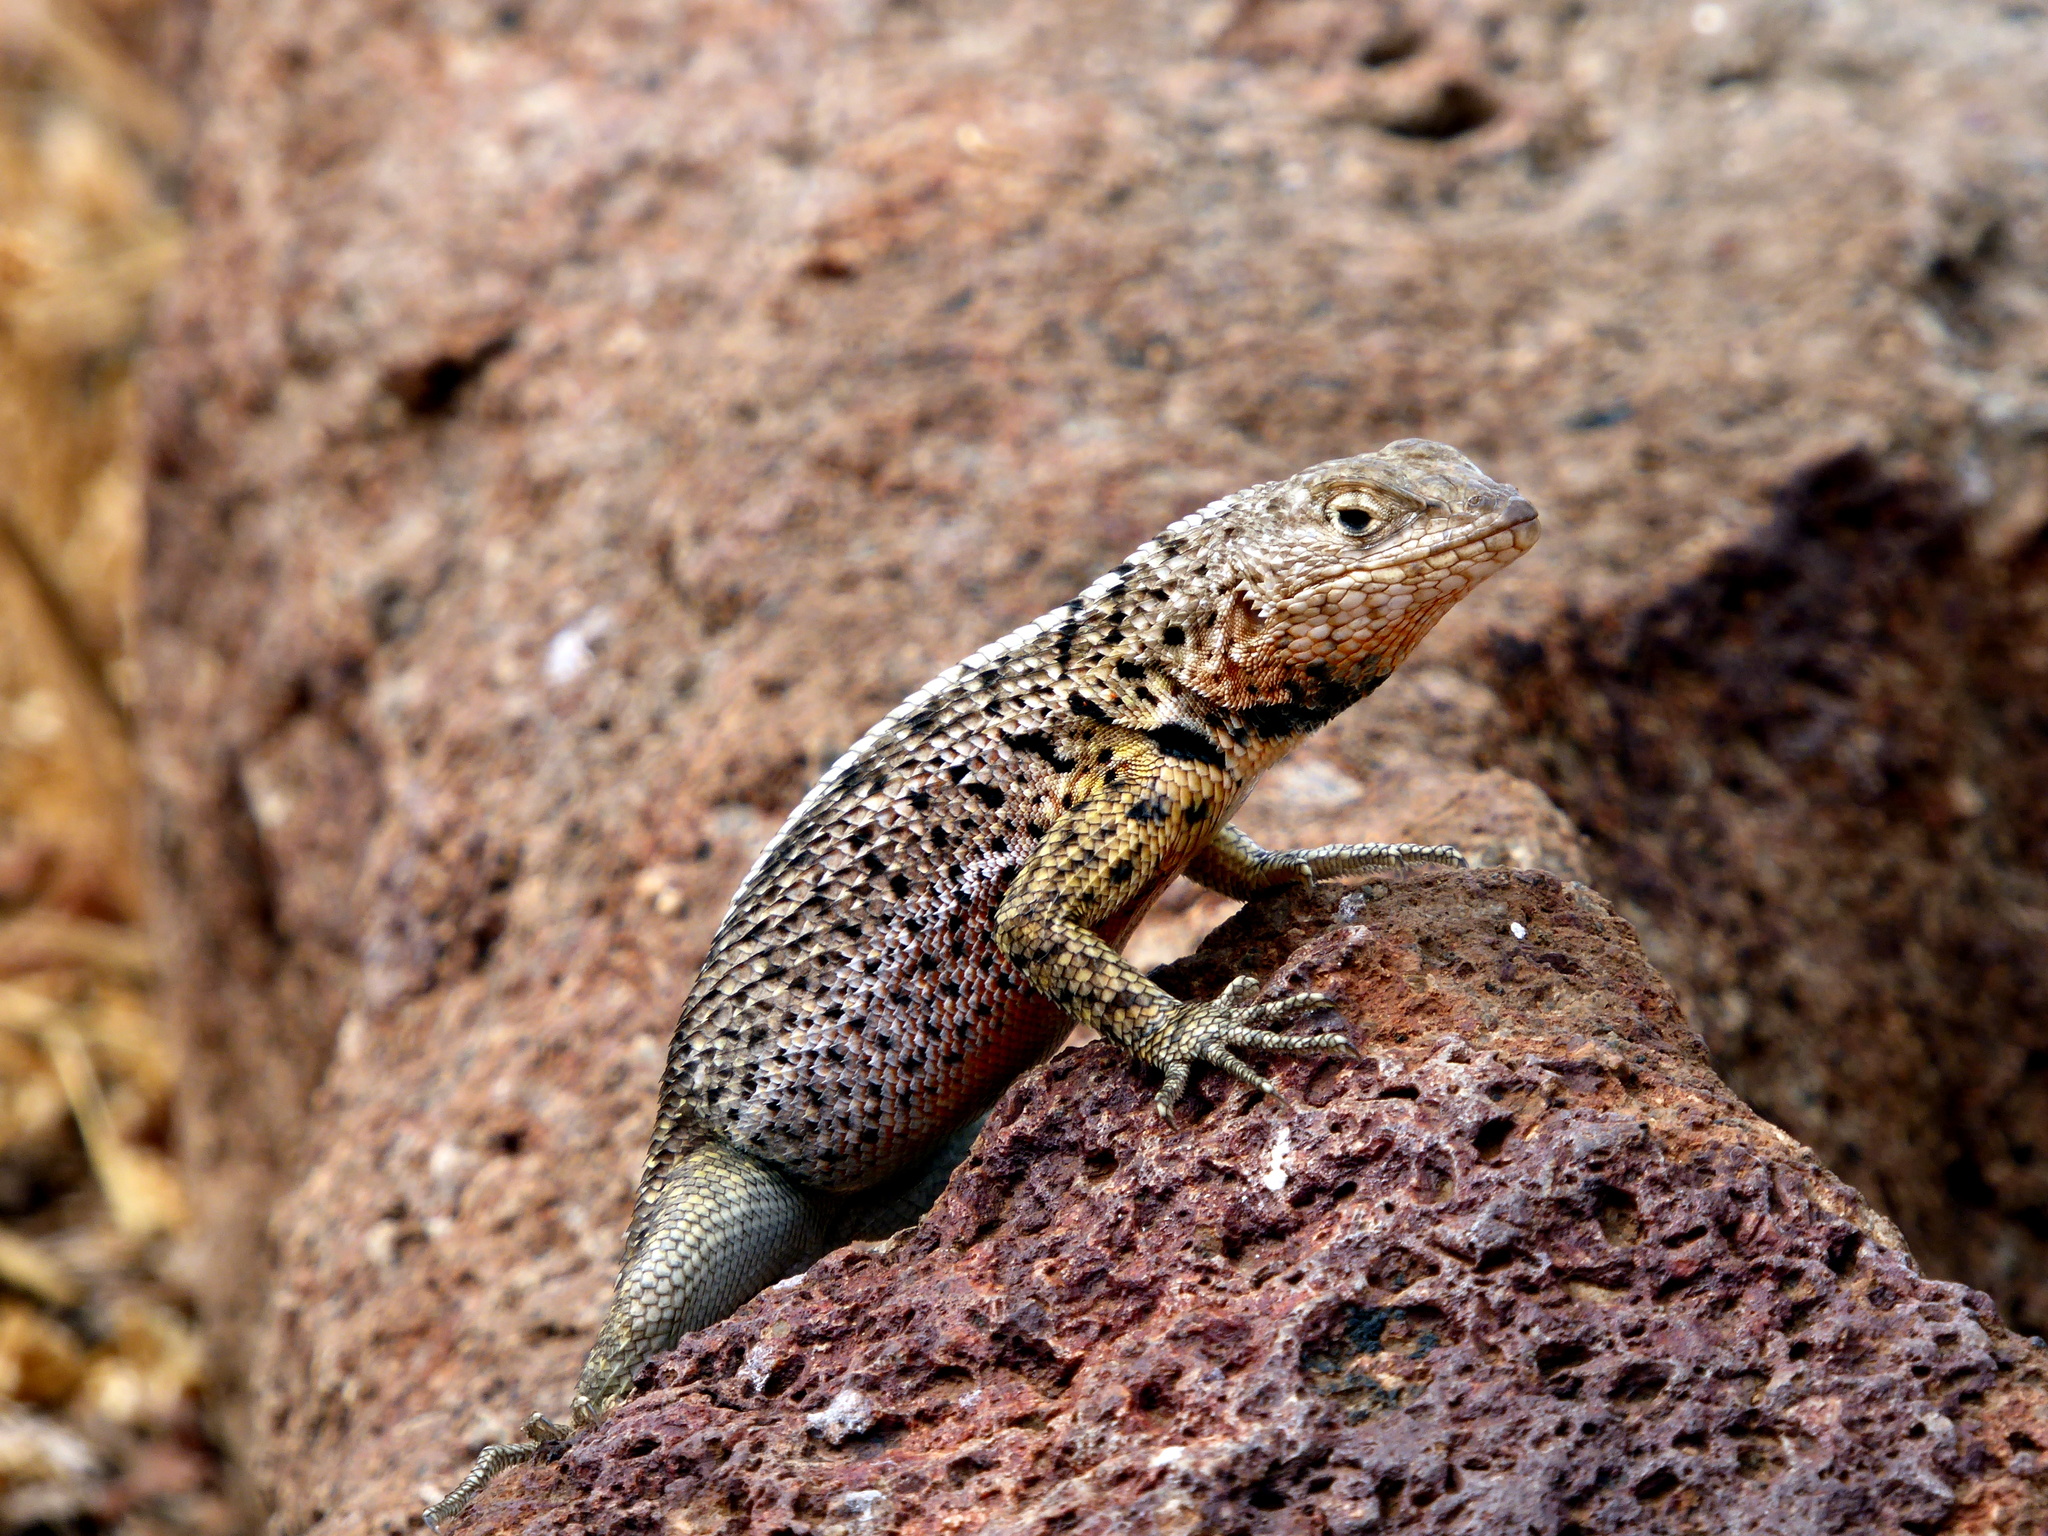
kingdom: Animalia
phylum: Chordata
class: Squamata
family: Tropiduridae
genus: Microlophus
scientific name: Microlophus indefatigabilis
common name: Galapagos lava lizard
